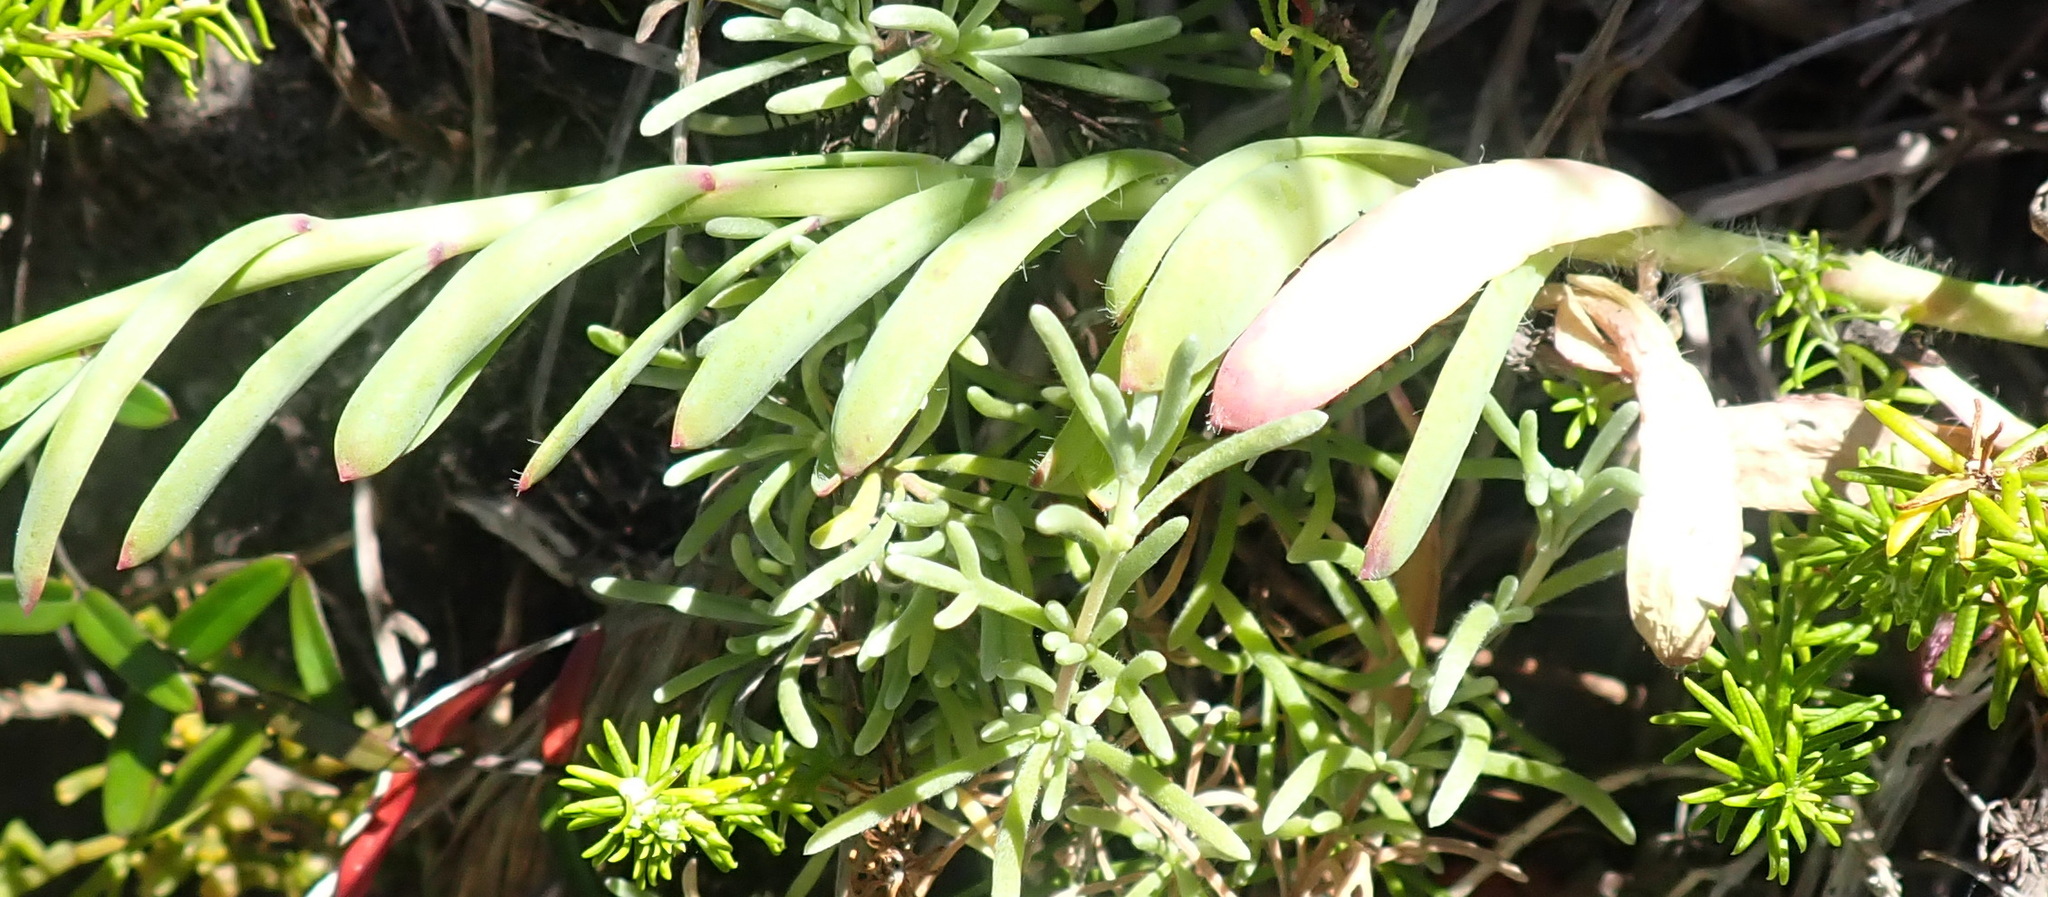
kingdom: Plantae
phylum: Tracheophyta
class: Magnoliopsida
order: Brassicales
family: Brassicaceae
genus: Heliophila
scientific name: Heliophila linearis
